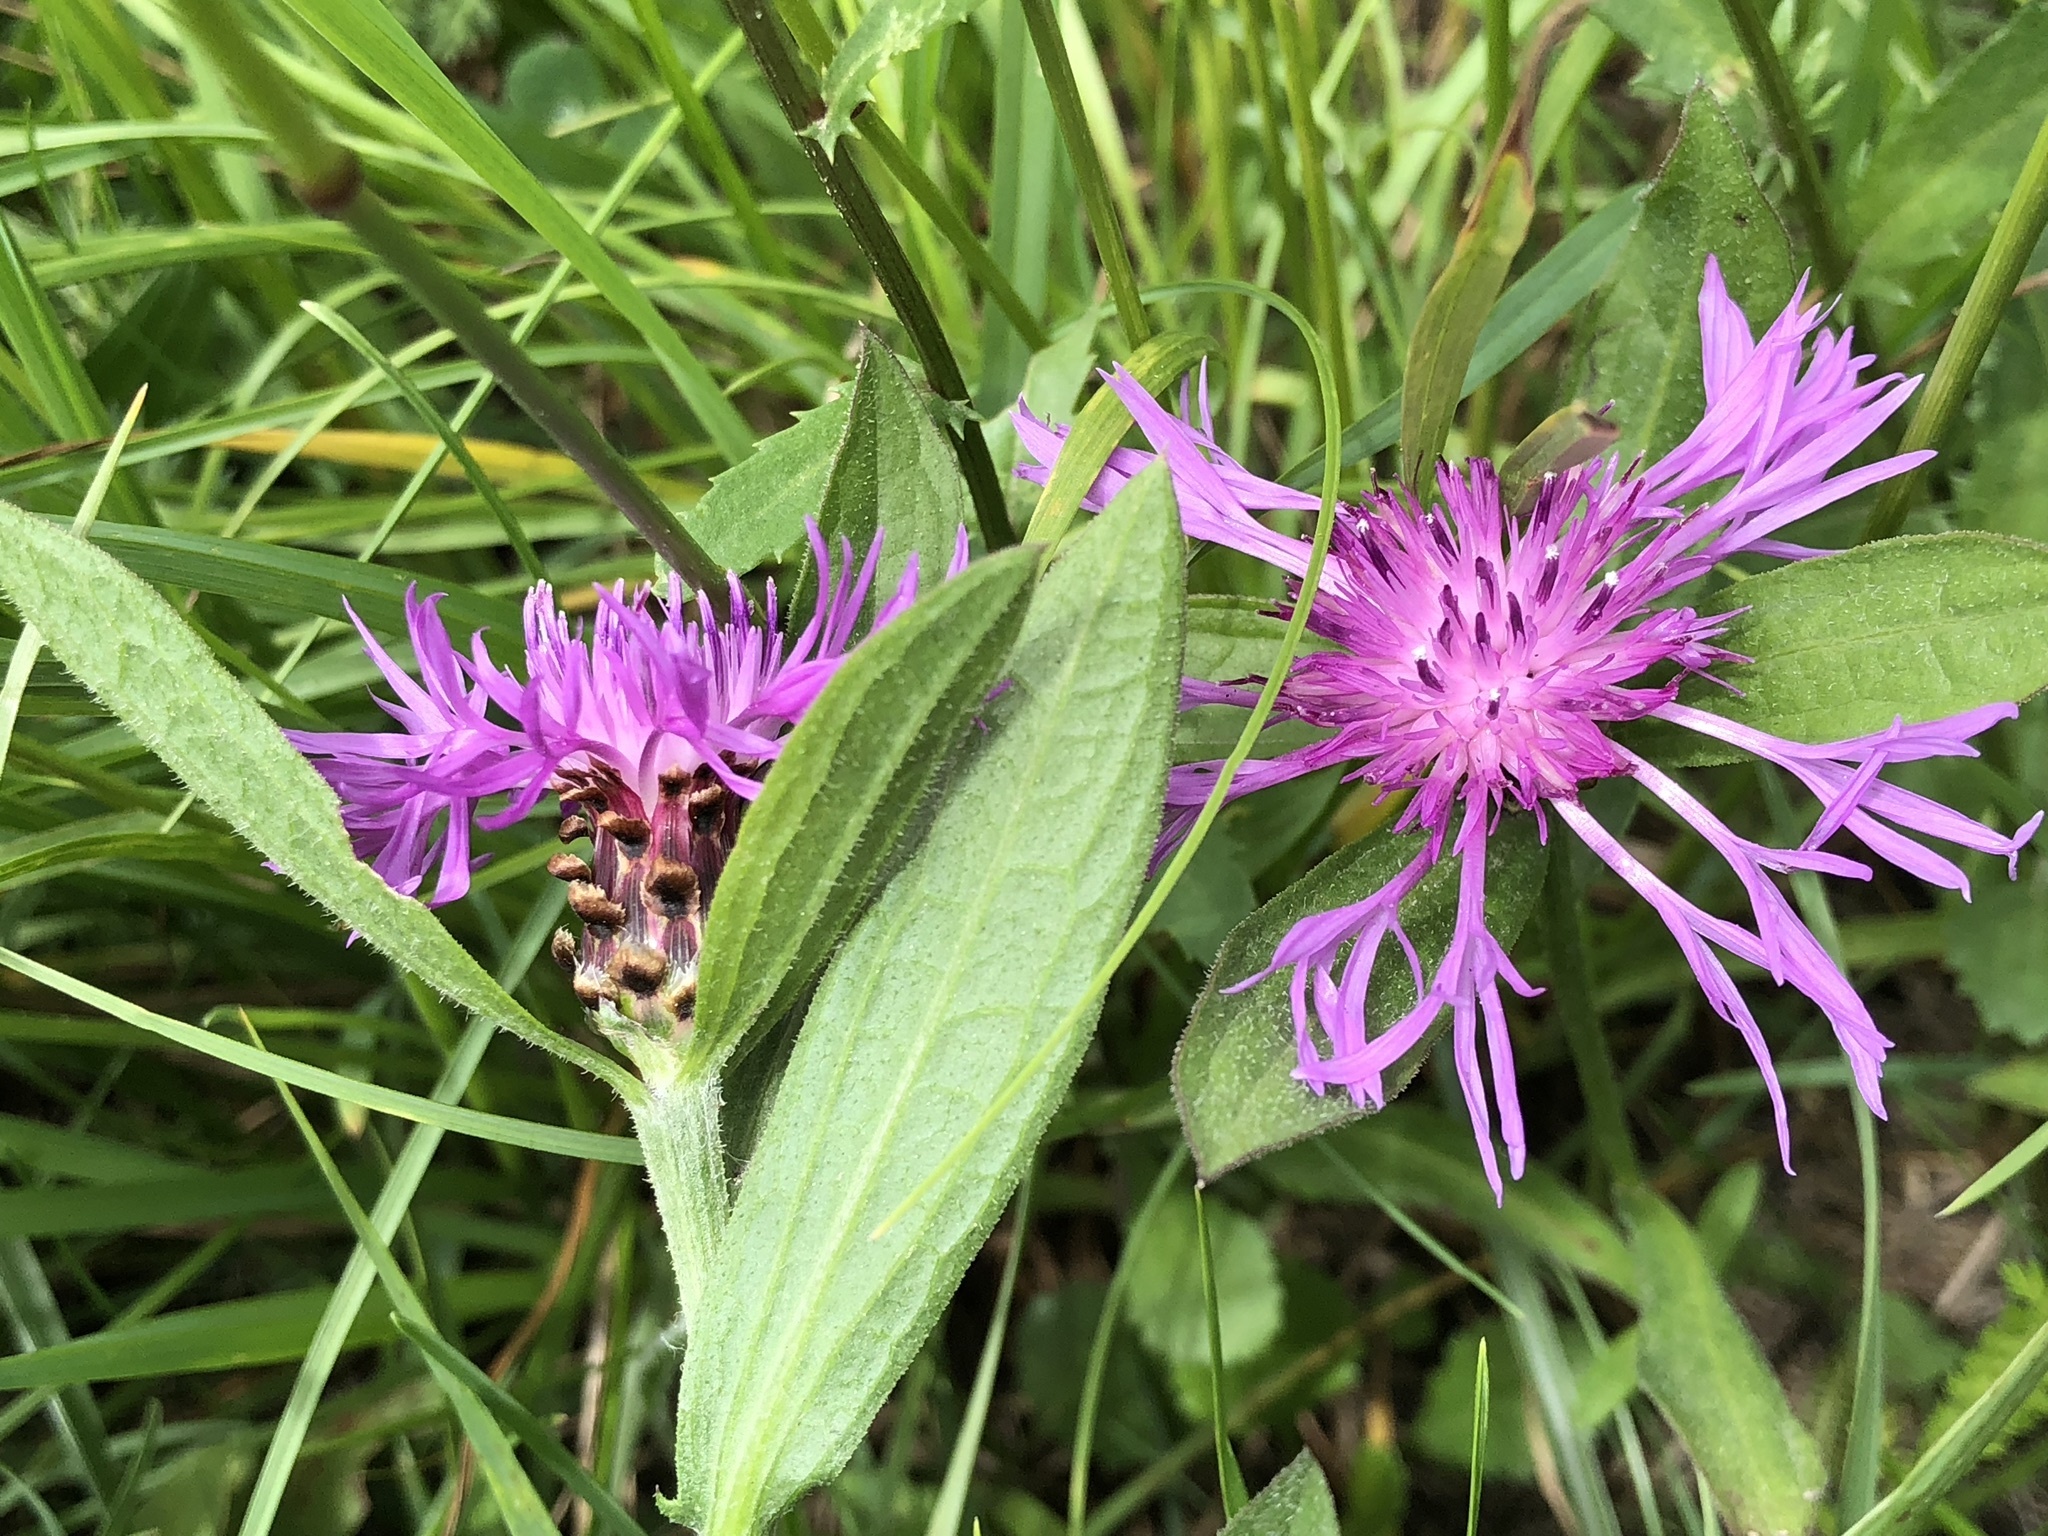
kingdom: Plantae
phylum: Tracheophyta
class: Magnoliopsida
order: Asterales
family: Asteraceae
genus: Centaurea
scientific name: Centaurea jacea
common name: Brown knapweed
